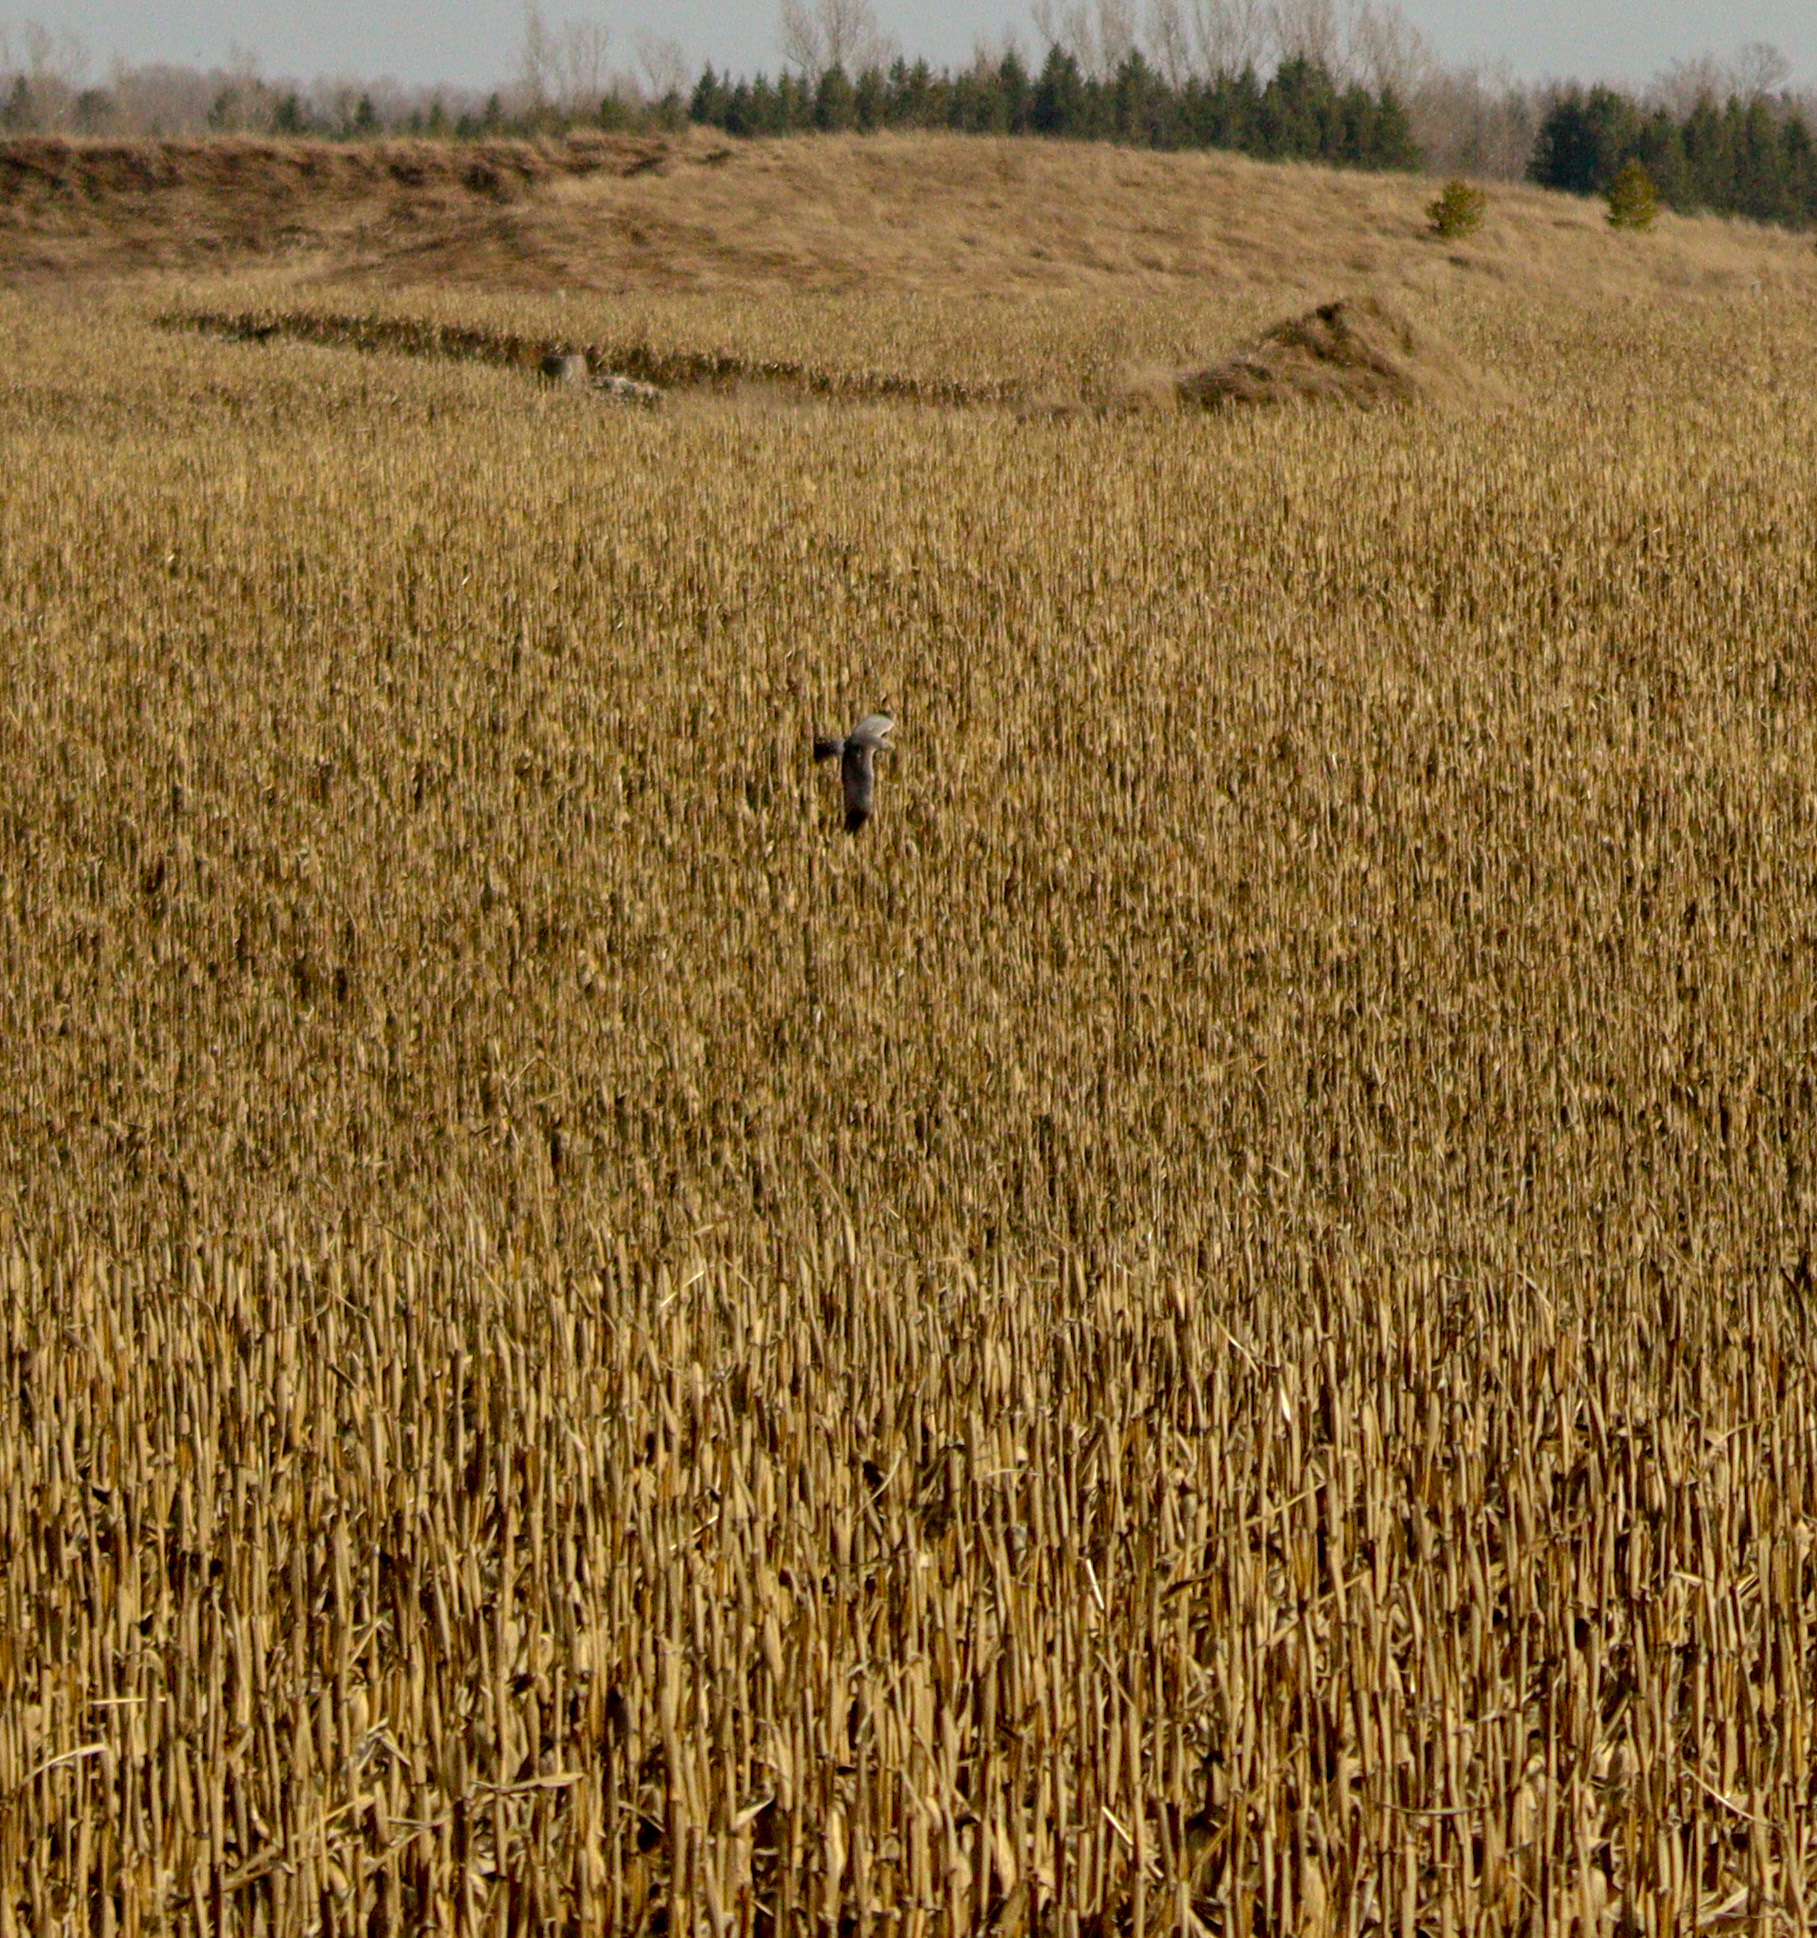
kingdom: Animalia
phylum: Chordata
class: Aves
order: Accipitriformes
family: Accipitridae
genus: Circus
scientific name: Circus cyaneus
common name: Hen harrier
